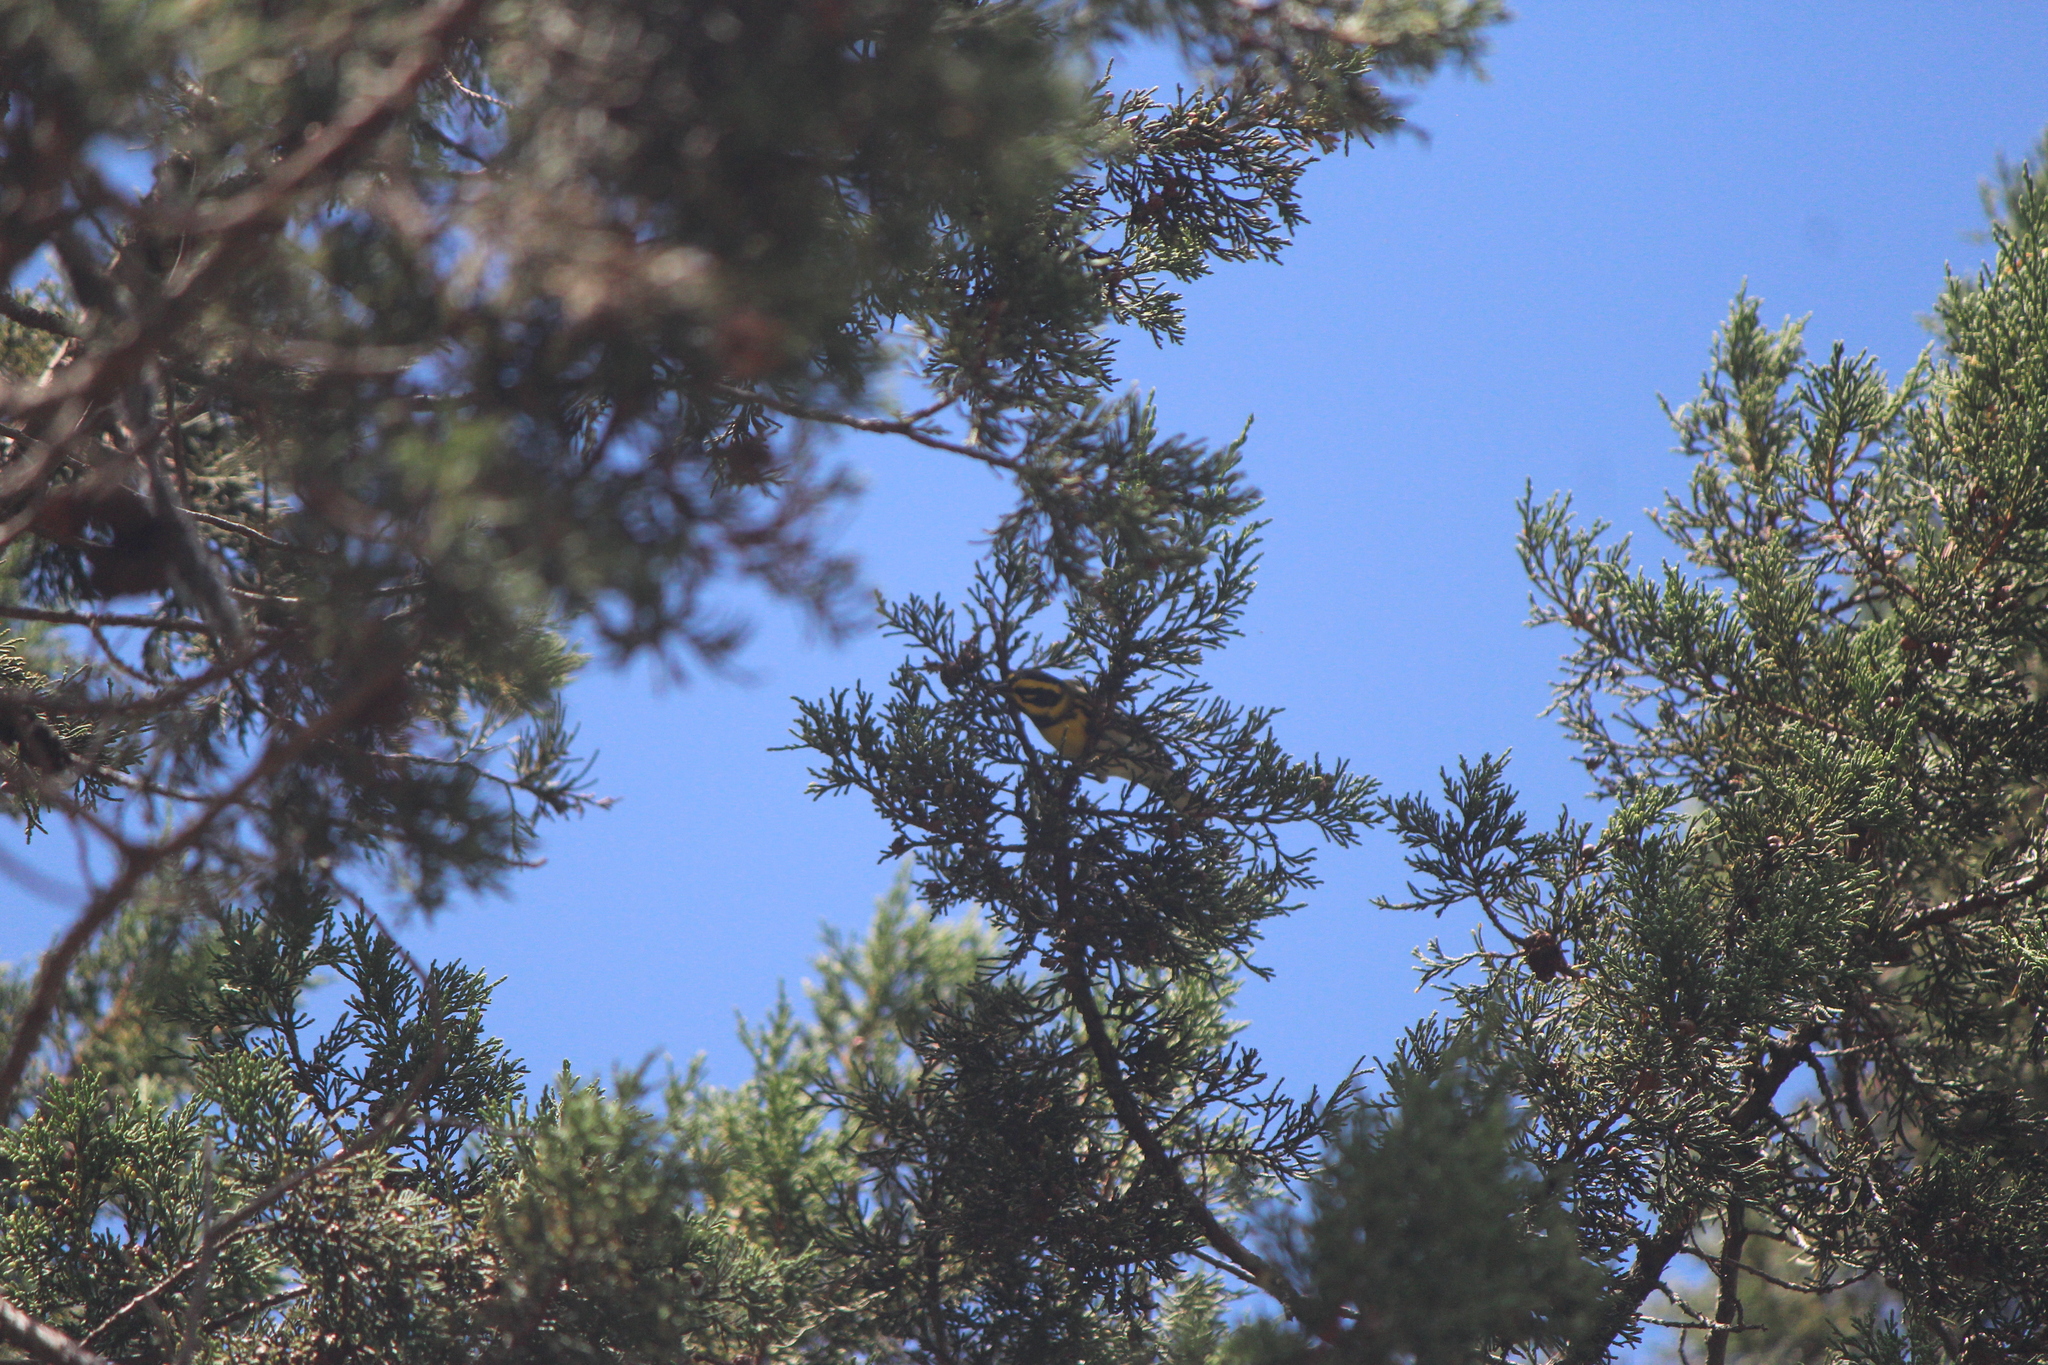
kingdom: Animalia
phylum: Chordata
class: Aves
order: Passeriformes
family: Parulidae
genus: Setophaga
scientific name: Setophaga townsendi
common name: Townsend's warbler
